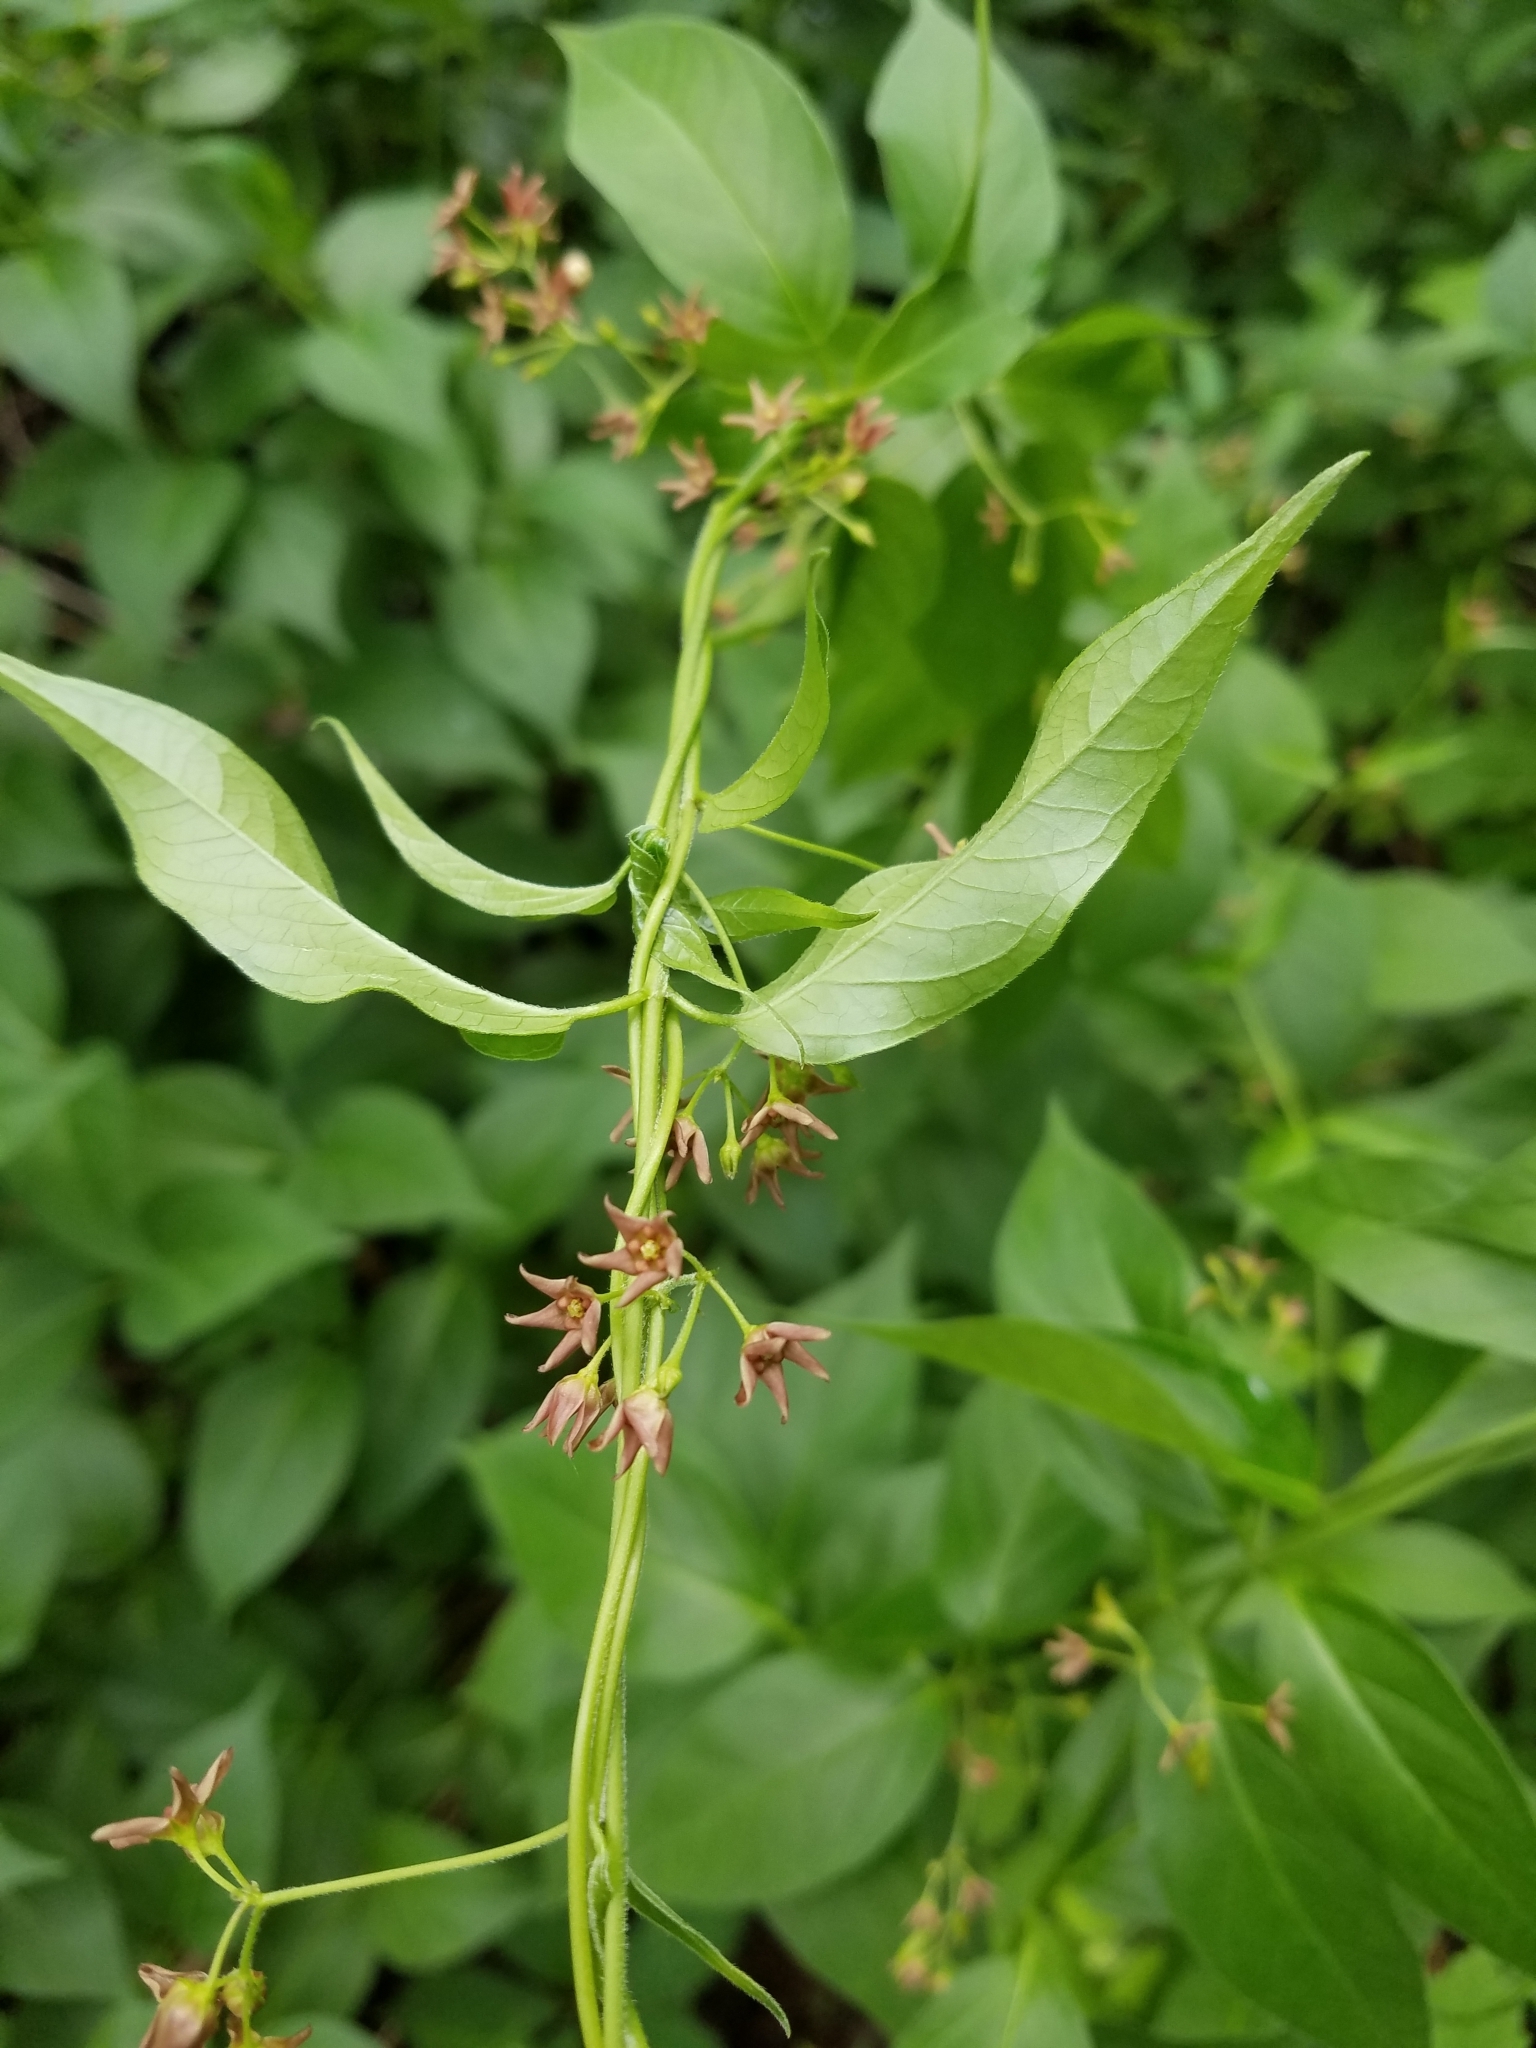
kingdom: Plantae
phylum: Tracheophyta
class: Magnoliopsida
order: Gentianales
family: Apocynaceae
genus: Vincetoxicum
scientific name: Vincetoxicum rossicum
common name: Dog-strangling vine
